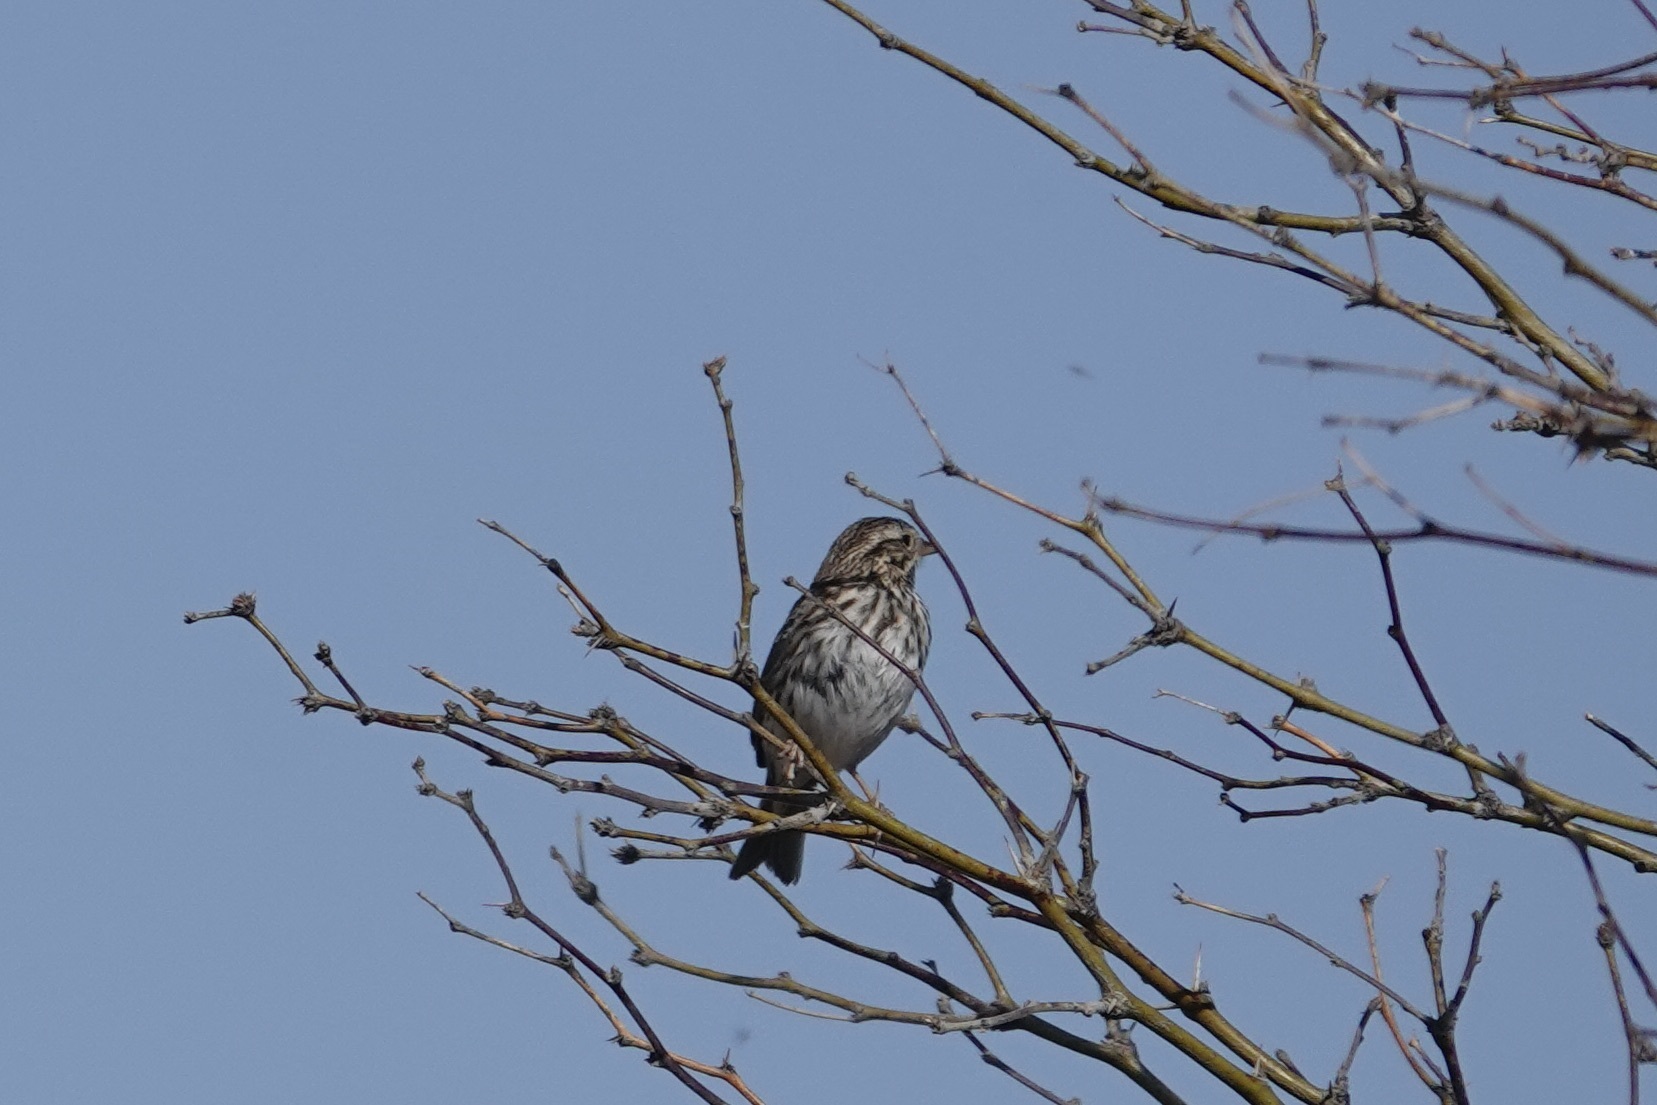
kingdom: Animalia
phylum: Chordata
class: Aves
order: Passeriformes
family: Passerellidae
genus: Passerculus
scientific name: Passerculus sandwichensis
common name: Savannah sparrow
